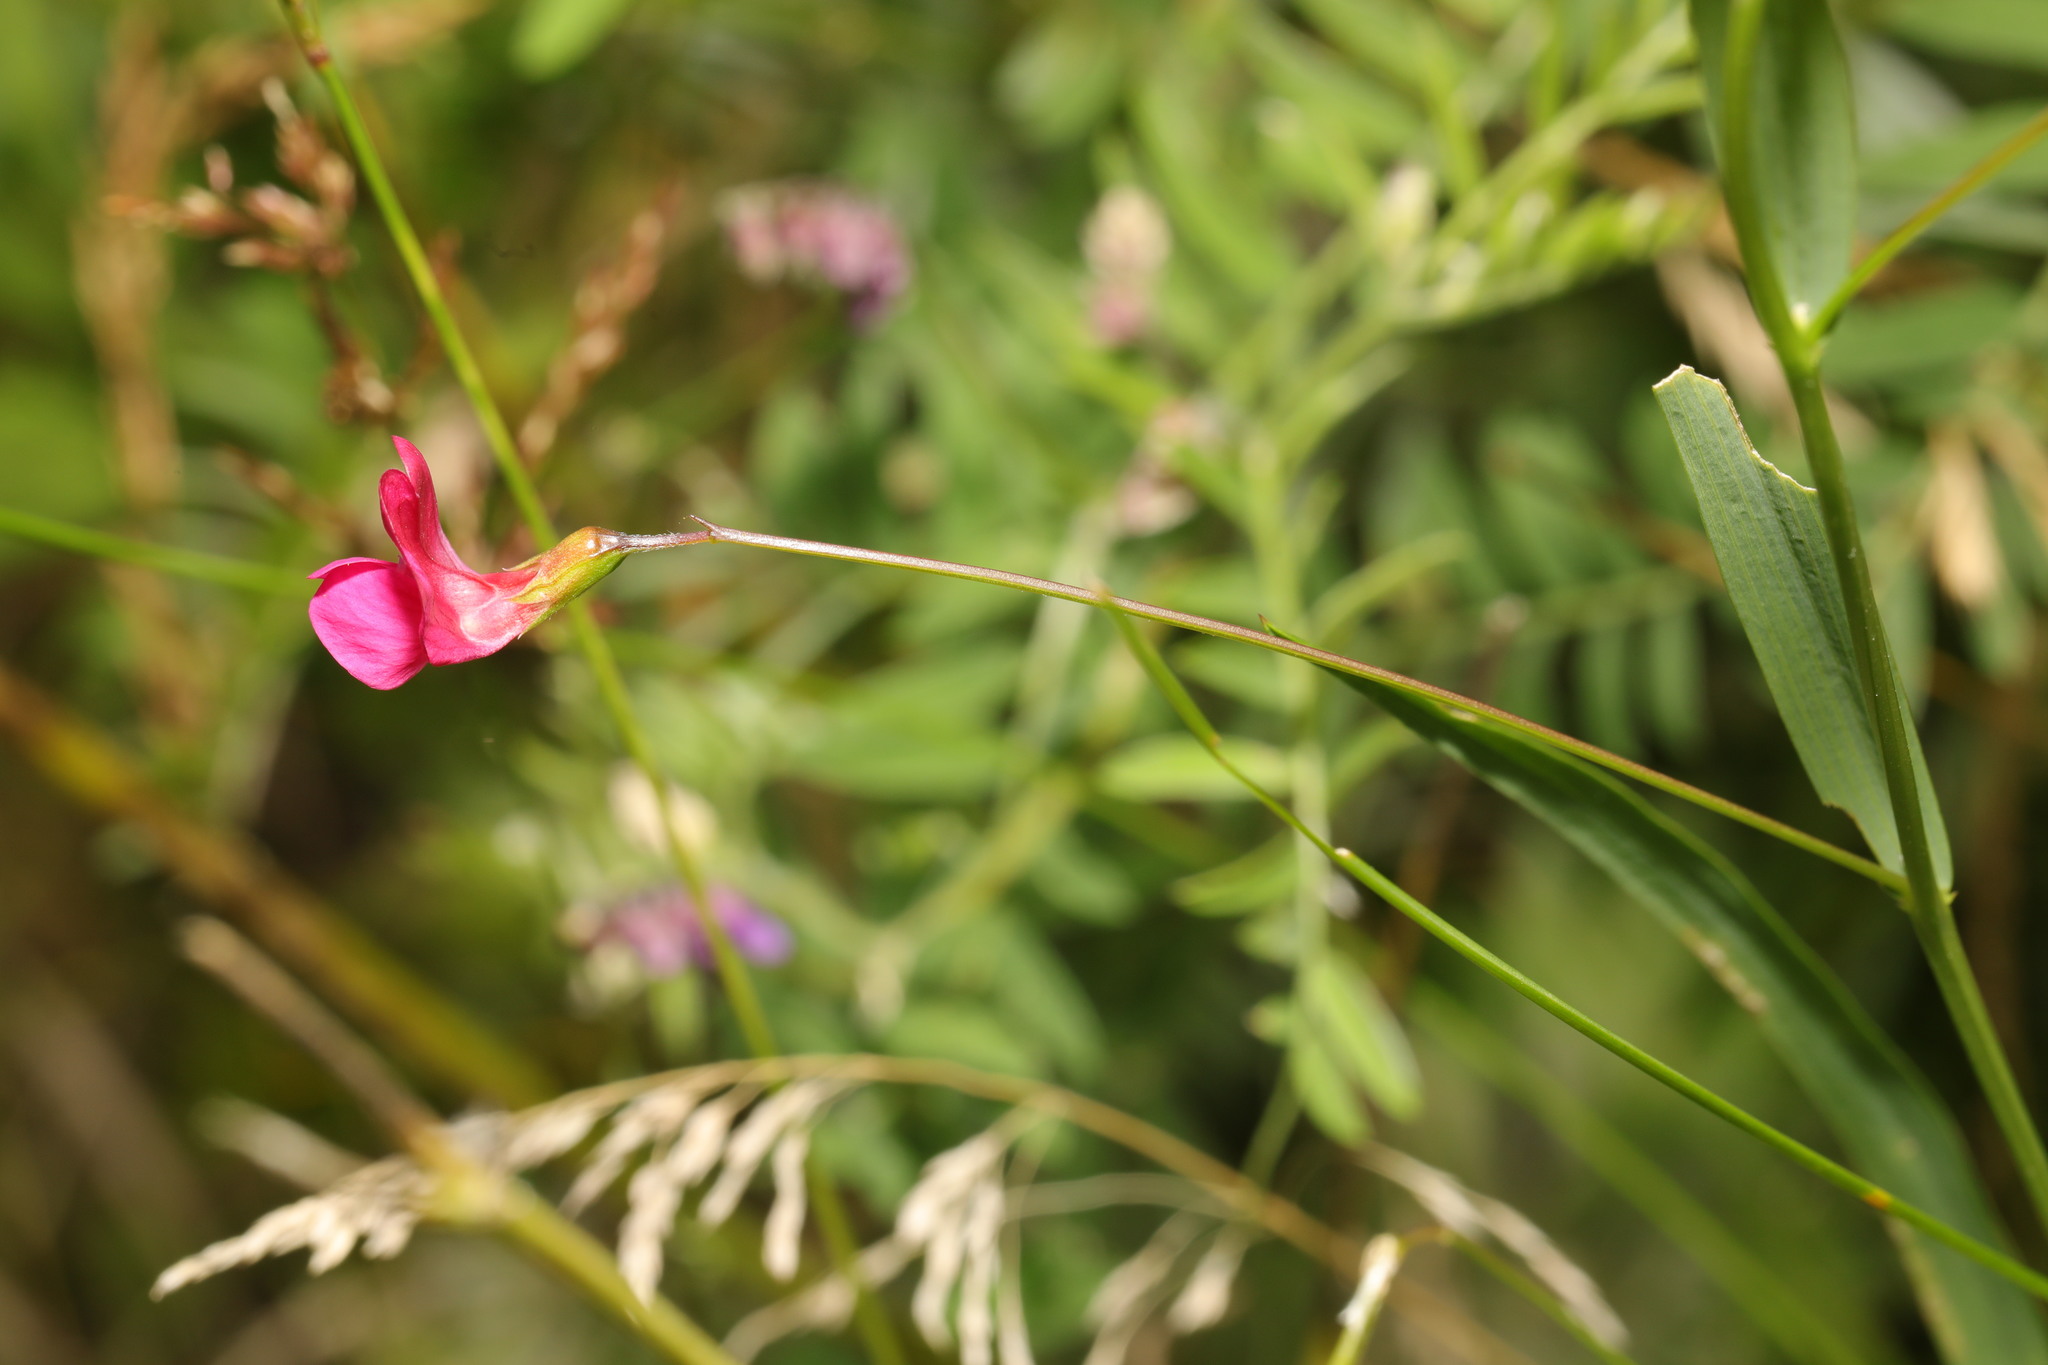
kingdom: Plantae
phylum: Tracheophyta
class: Magnoliopsida
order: Fabales
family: Fabaceae
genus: Lathyrus
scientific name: Lathyrus nissolia
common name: Grass vetchling
